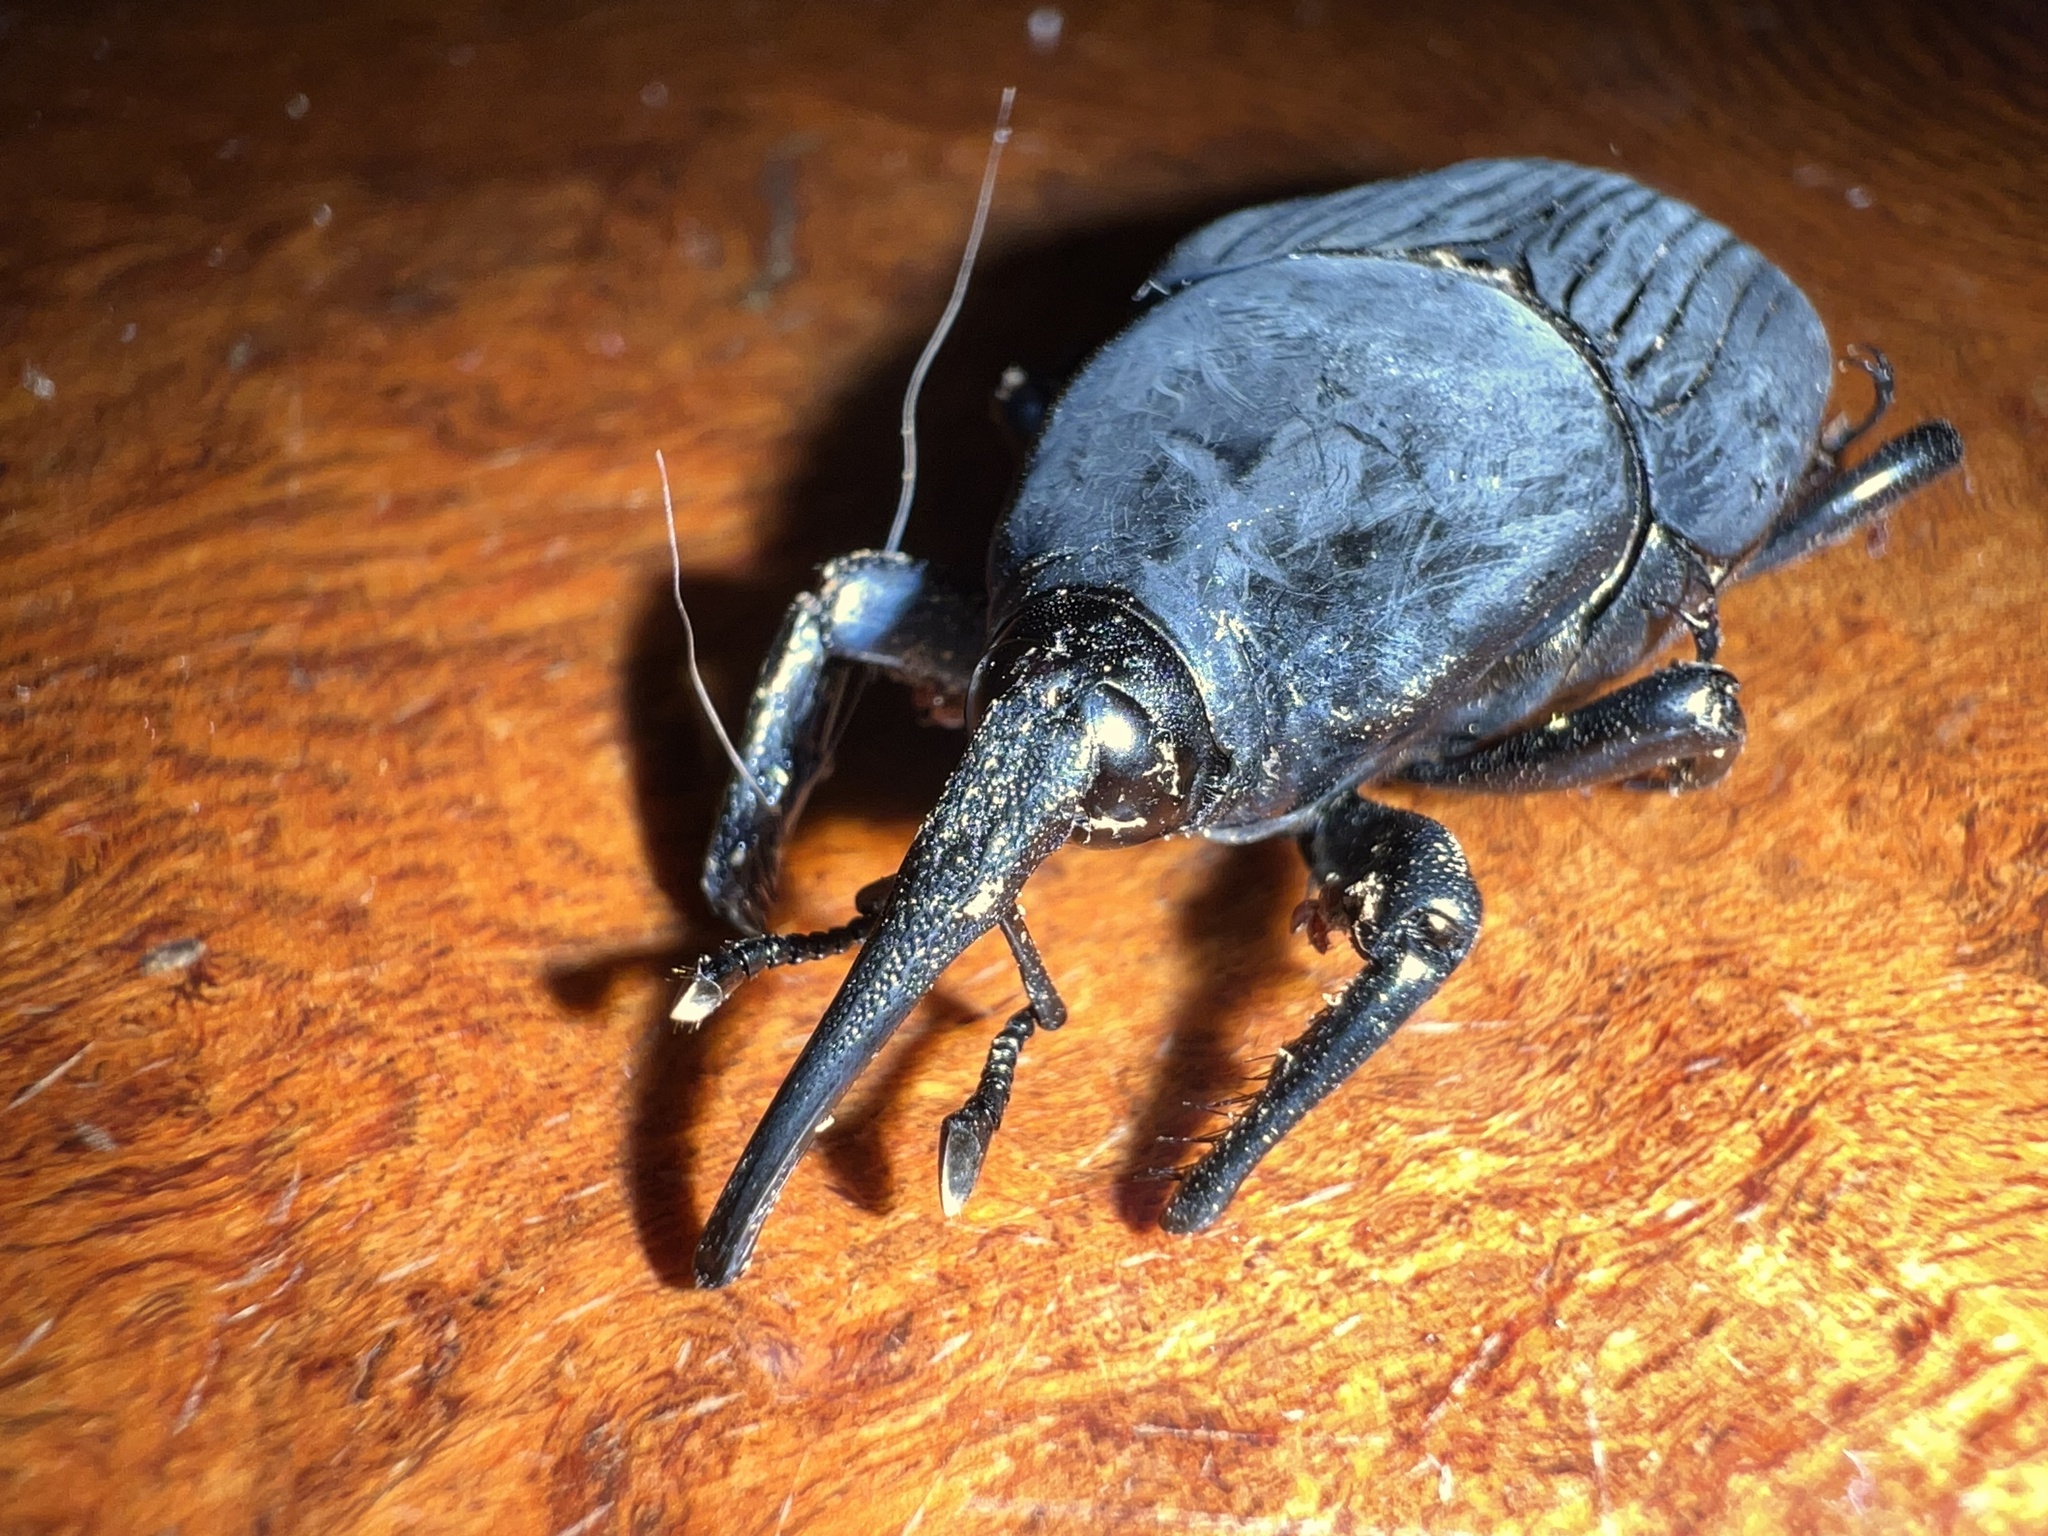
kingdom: Animalia
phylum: Arthropoda
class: Insecta
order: Coleoptera
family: Dryophthoridae
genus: Rhynchophorus
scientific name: Rhynchophorus palmarum
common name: Palm weevil
